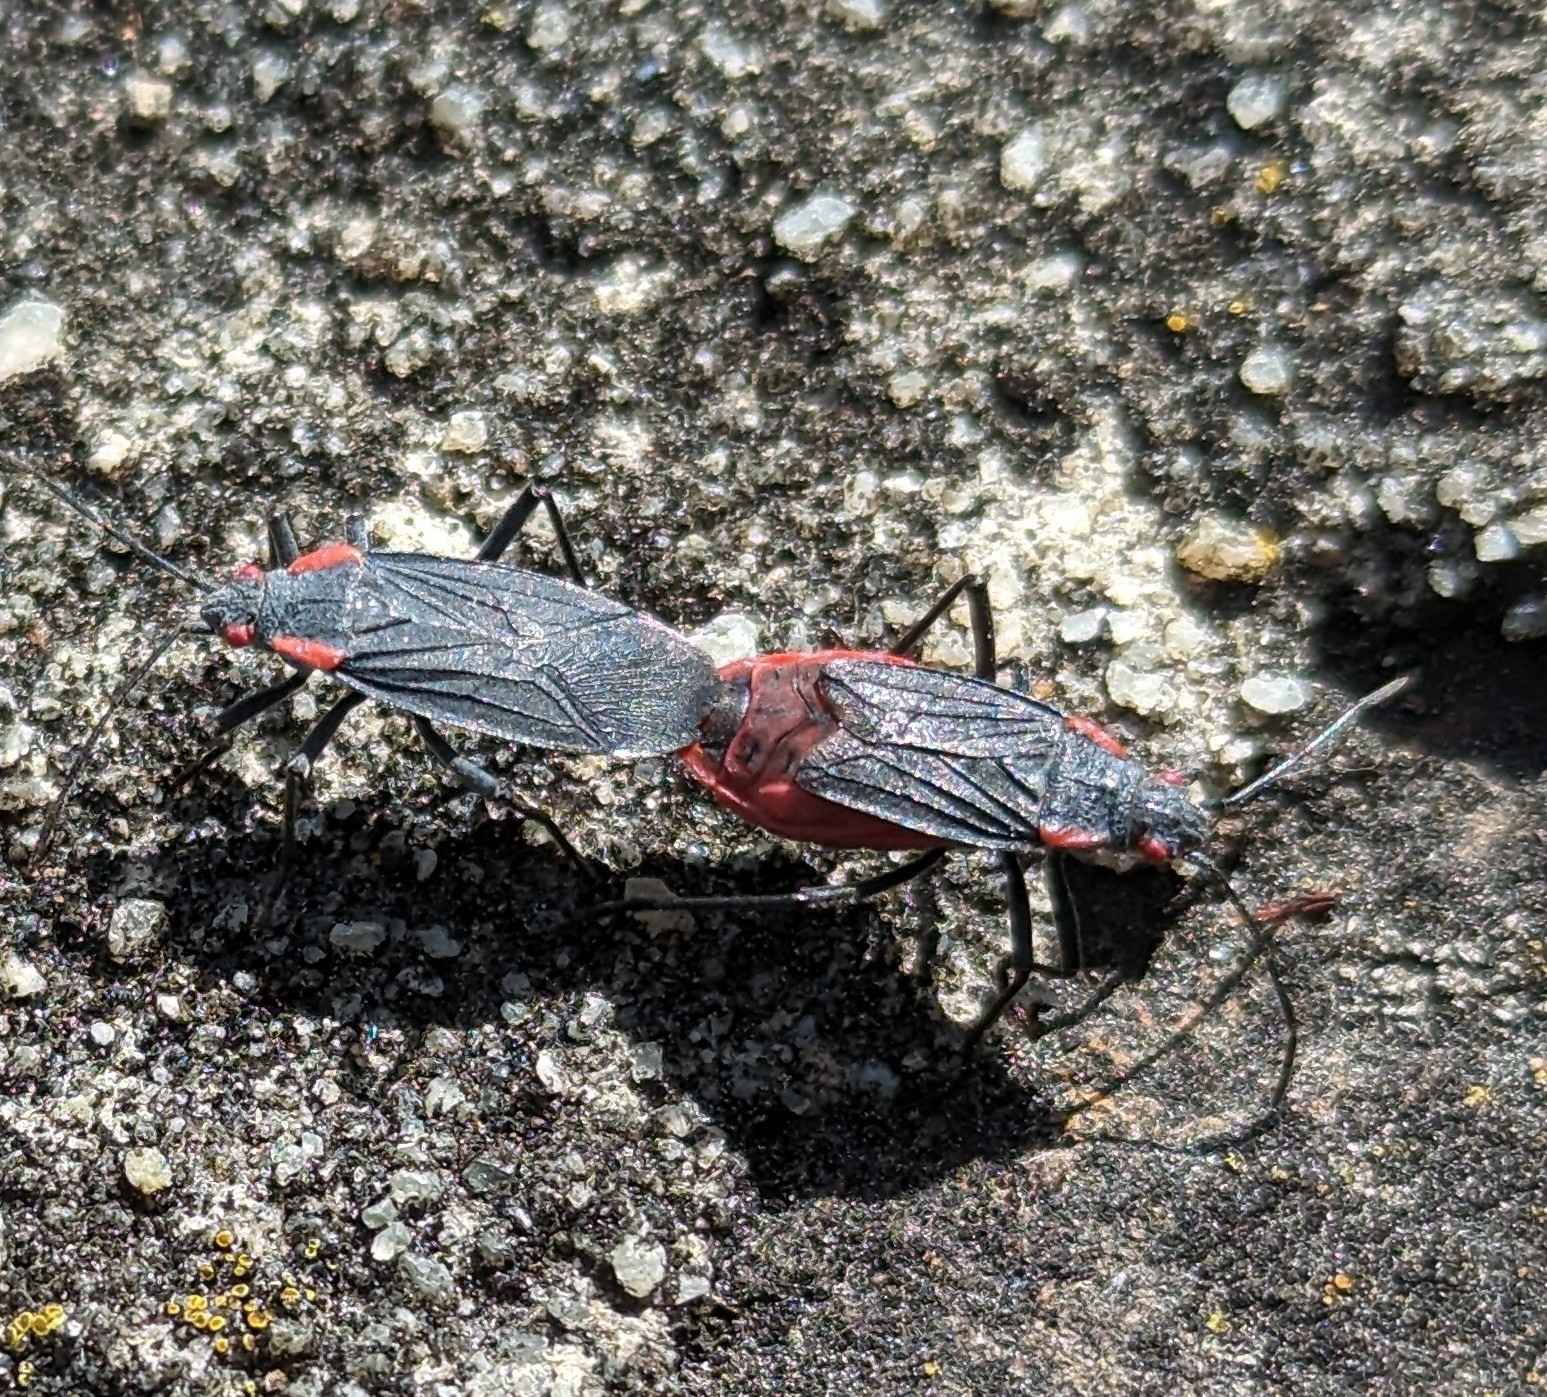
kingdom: Animalia
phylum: Arthropoda
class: Insecta
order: Hemiptera
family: Rhopalidae
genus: Jadera
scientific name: Jadera haematoloma
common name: Red-shouldered bug
